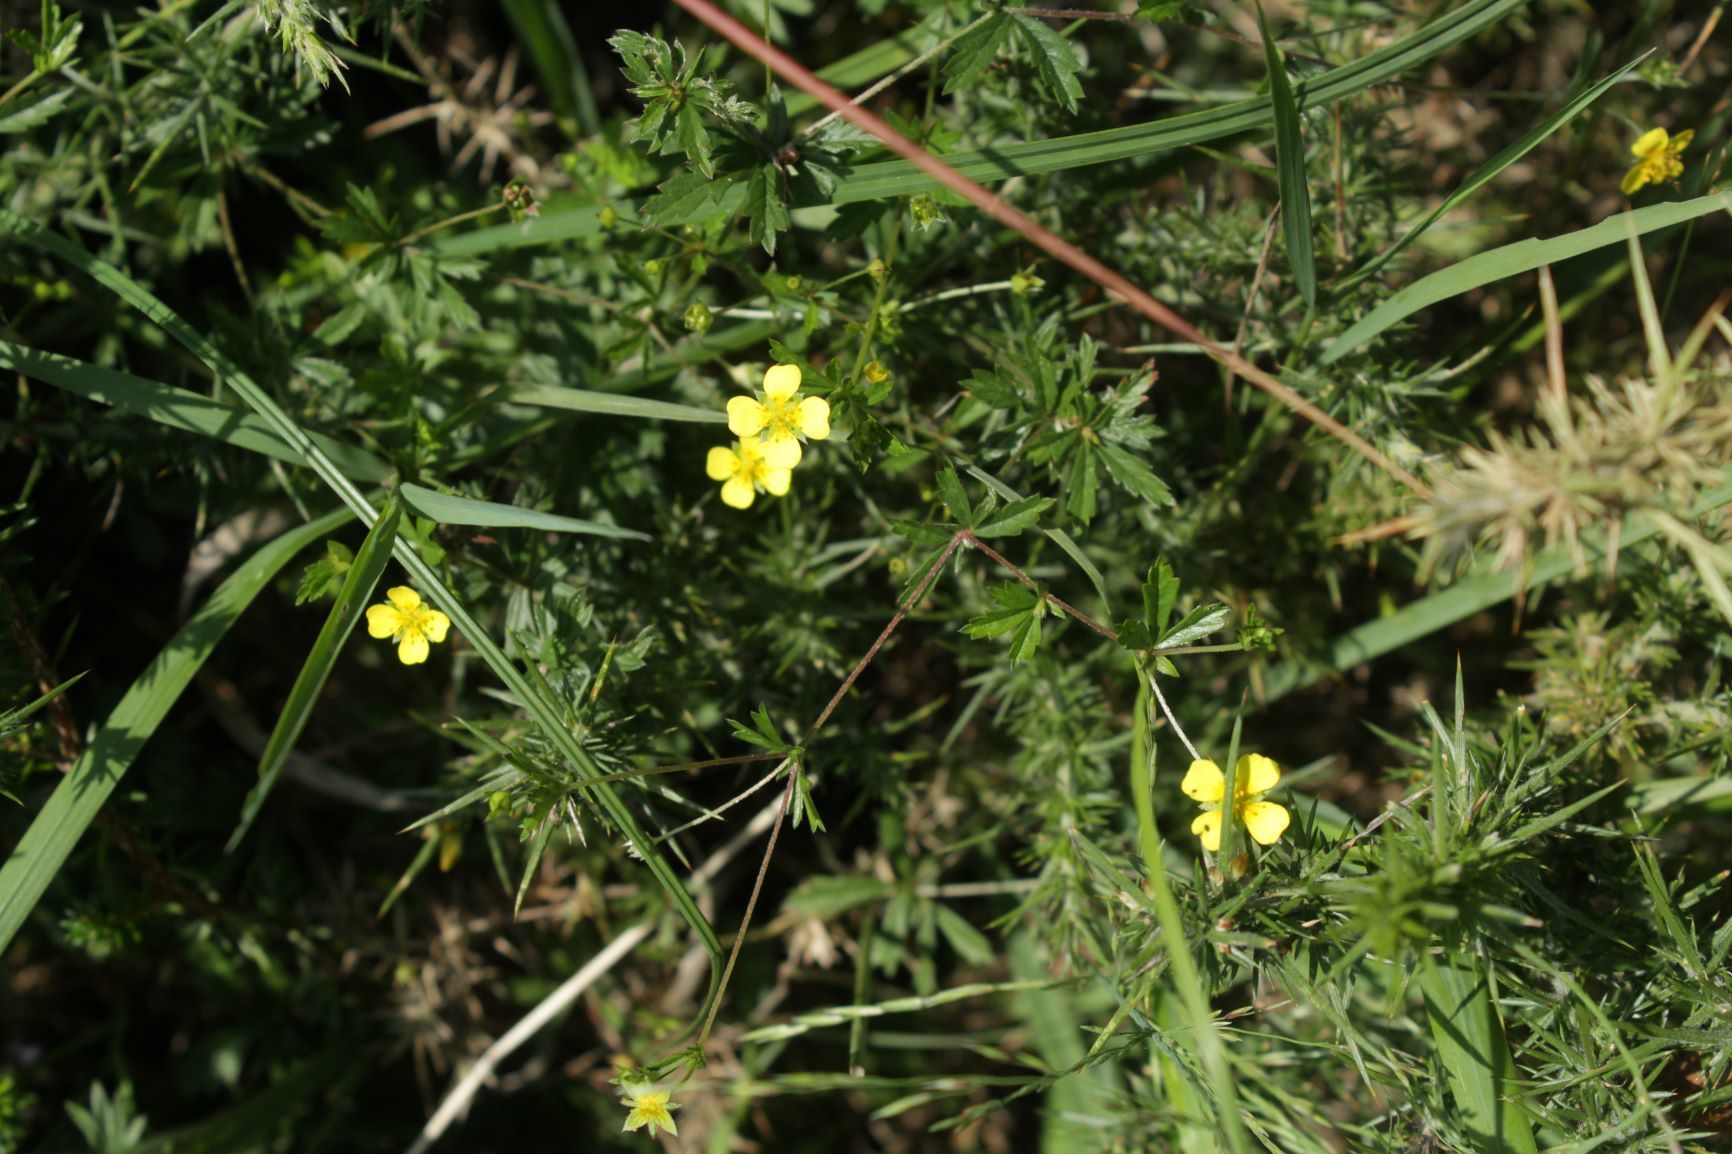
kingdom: Plantae
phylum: Tracheophyta
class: Magnoliopsida
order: Rosales
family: Rosaceae
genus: Potentilla
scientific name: Potentilla erecta
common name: Tormentil
